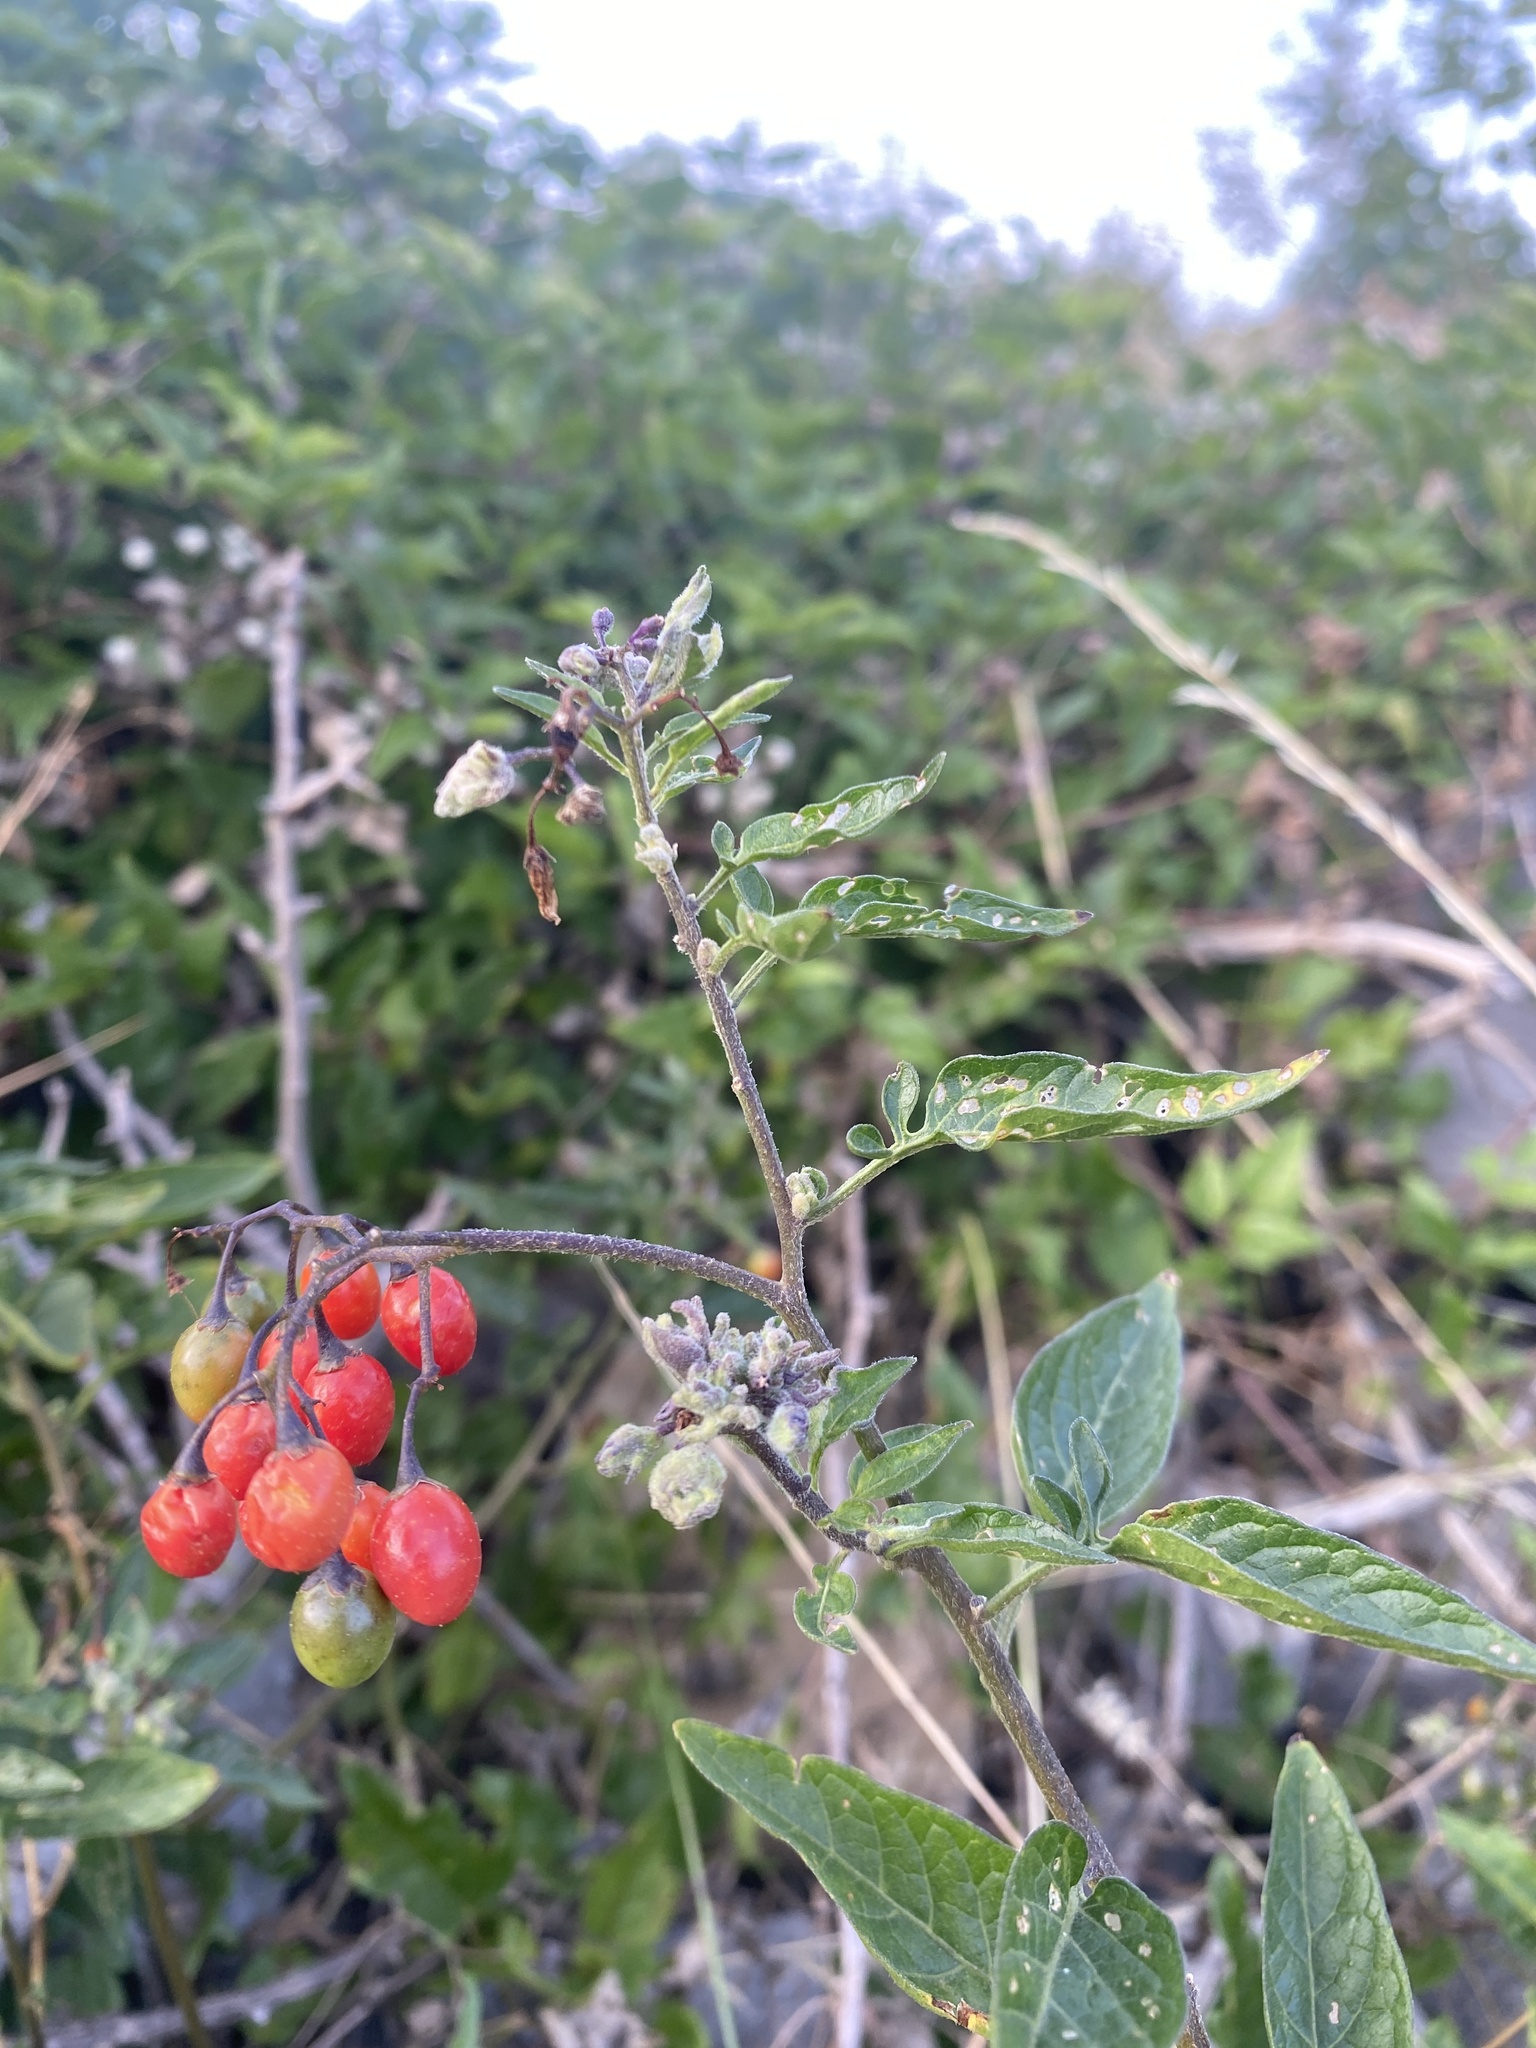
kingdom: Plantae
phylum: Tracheophyta
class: Magnoliopsida
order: Solanales
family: Solanaceae
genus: Solanum
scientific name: Solanum dulcamara
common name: Climbing nightshade
